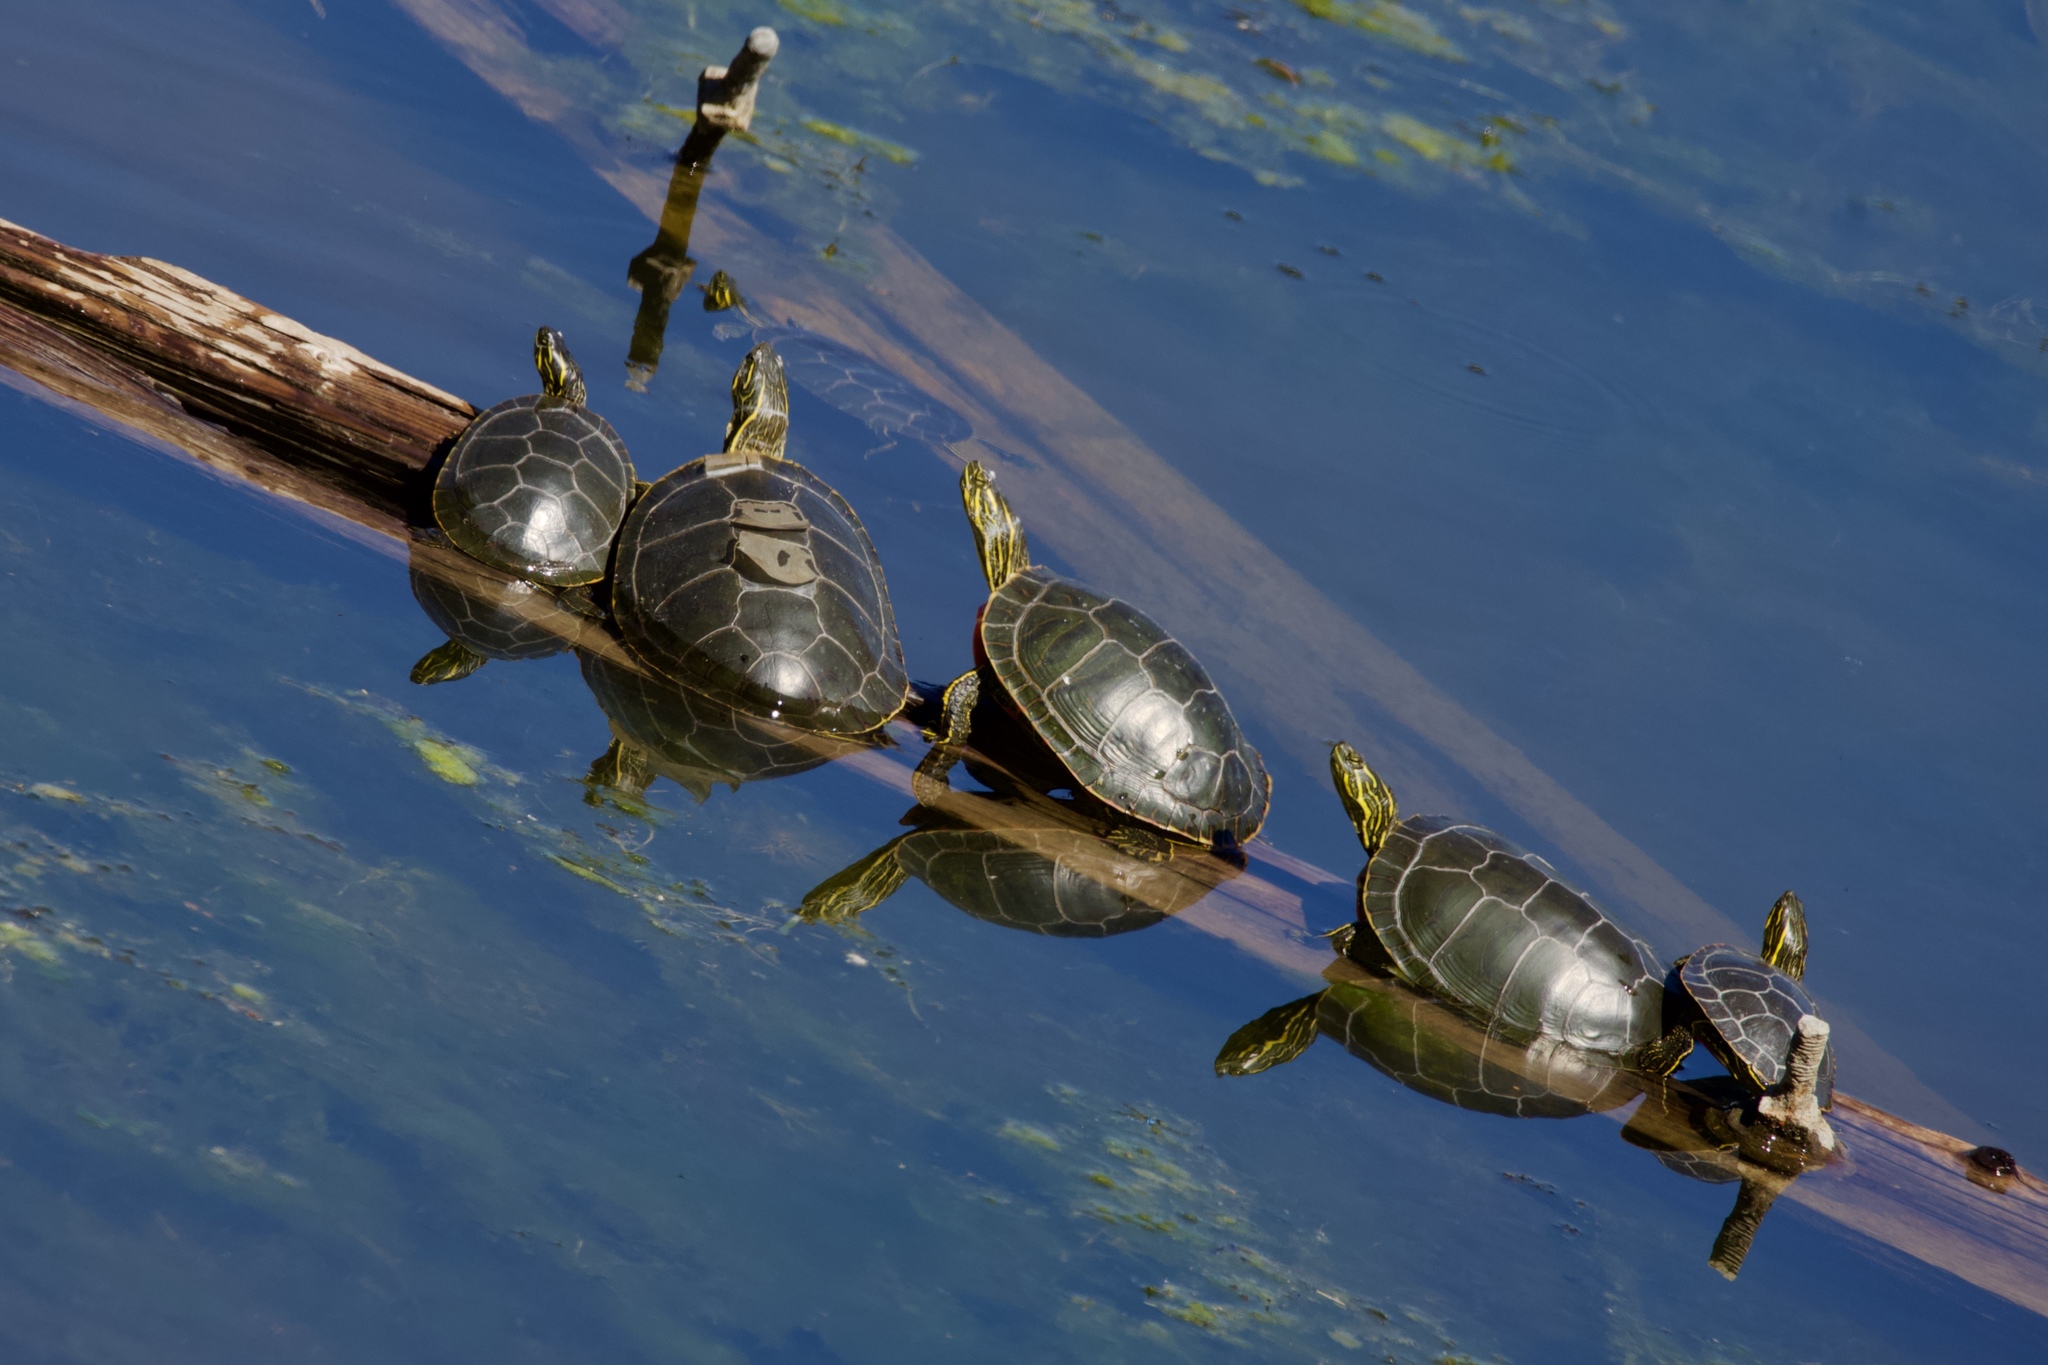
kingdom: Animalia
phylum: Chordata
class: Testudines
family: Emydidae
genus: Chrysemys
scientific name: Chrysemys picta
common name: Painted turtle
